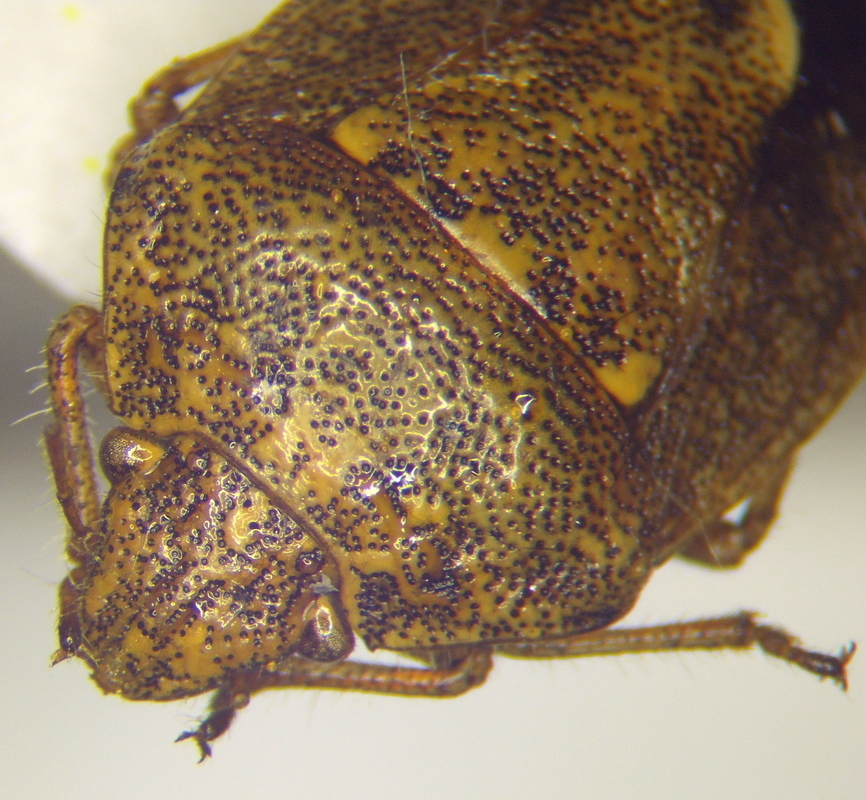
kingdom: Animalia
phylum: Arthropoda
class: Insecta
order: Hemiptera
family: Pentatomidae
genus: Staria
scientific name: Staria lunata
